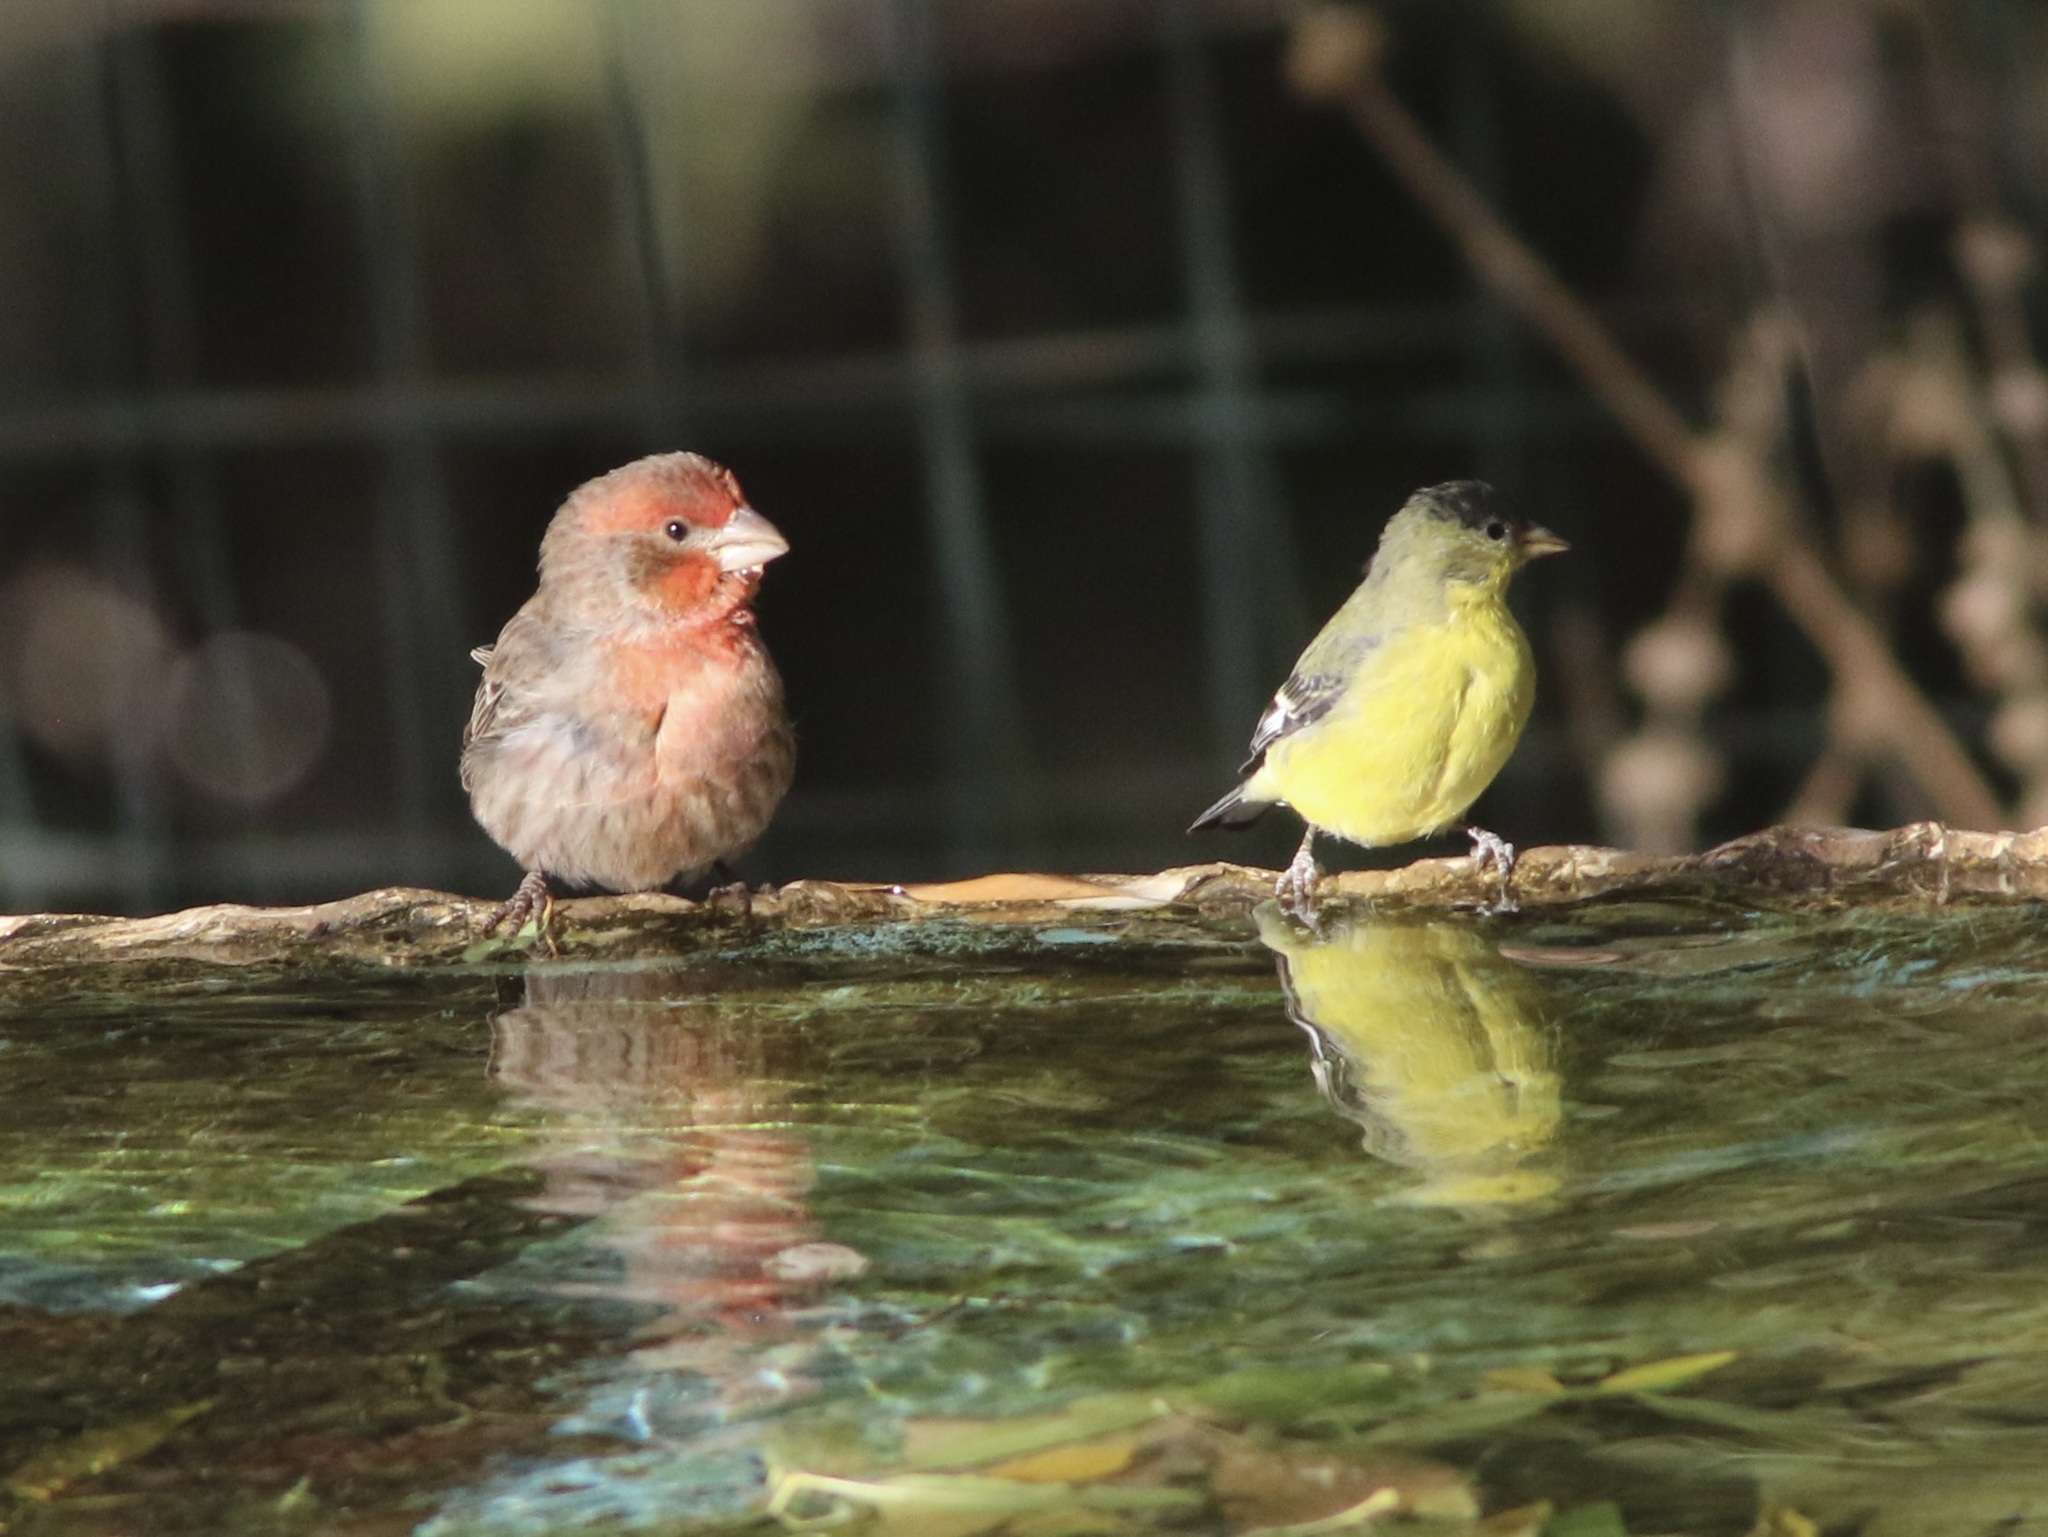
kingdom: Animalia
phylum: Chordata
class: Aves
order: Passeriformes
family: Fringillidae
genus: Haemorhous
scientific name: Haemorhous mexicanus
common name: House finch
